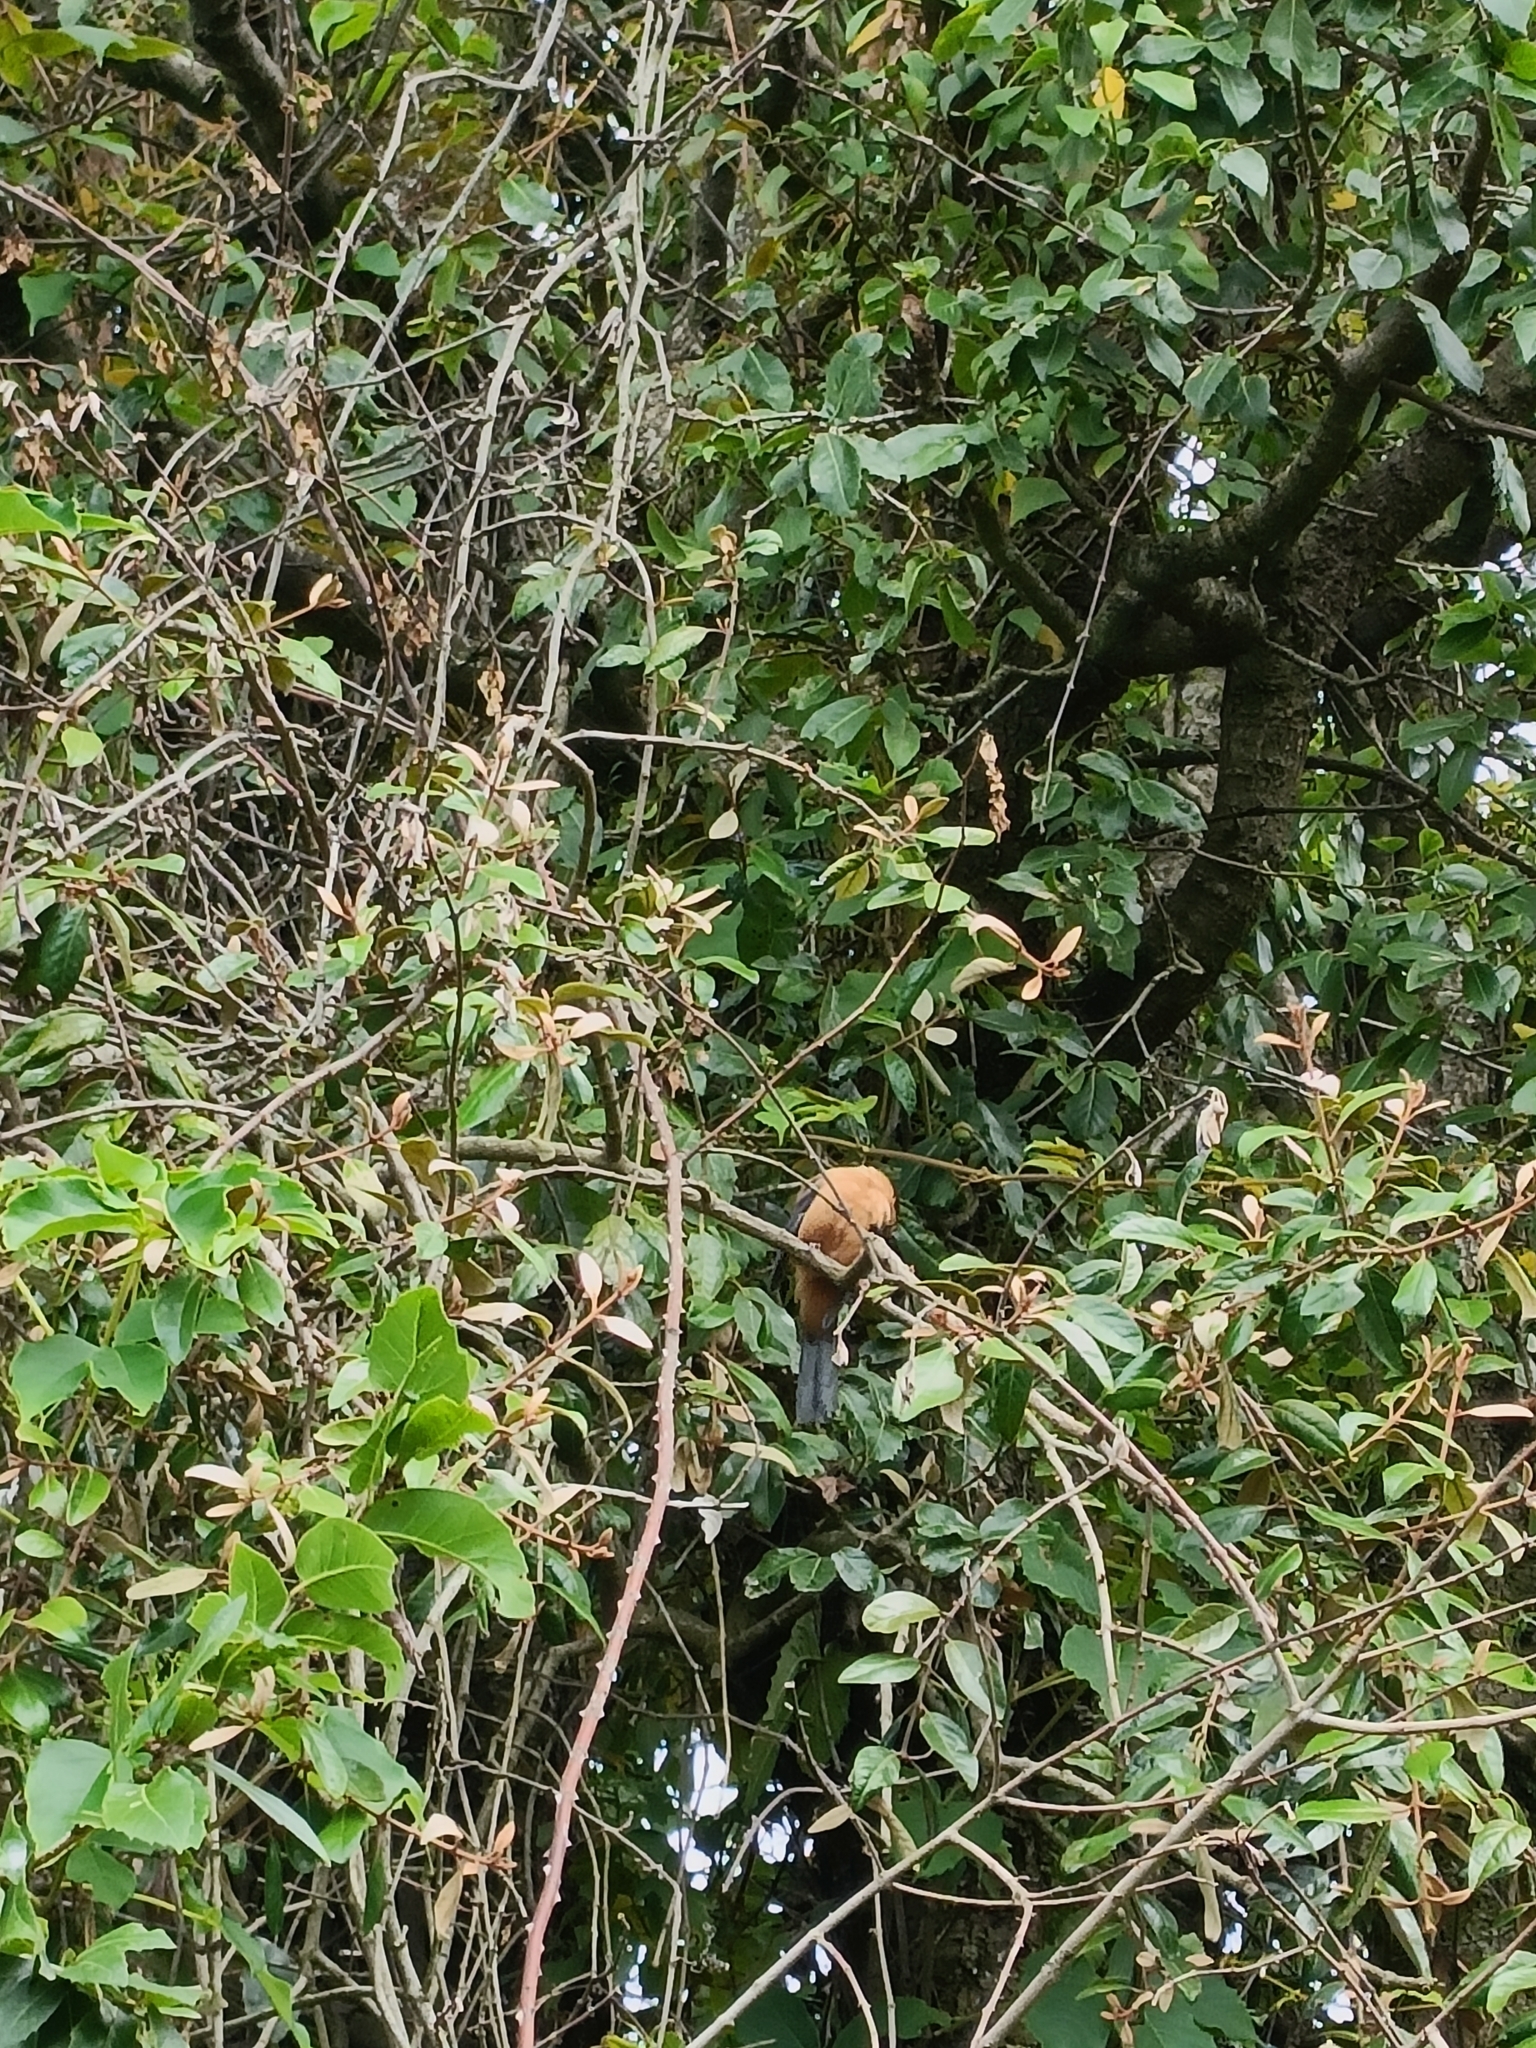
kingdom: Animalia
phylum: Chordata
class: Aves
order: Passeriformes
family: Leiothrichidae
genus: Heterophasia
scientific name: Heterophasia capistrata
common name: Rufous sibia
